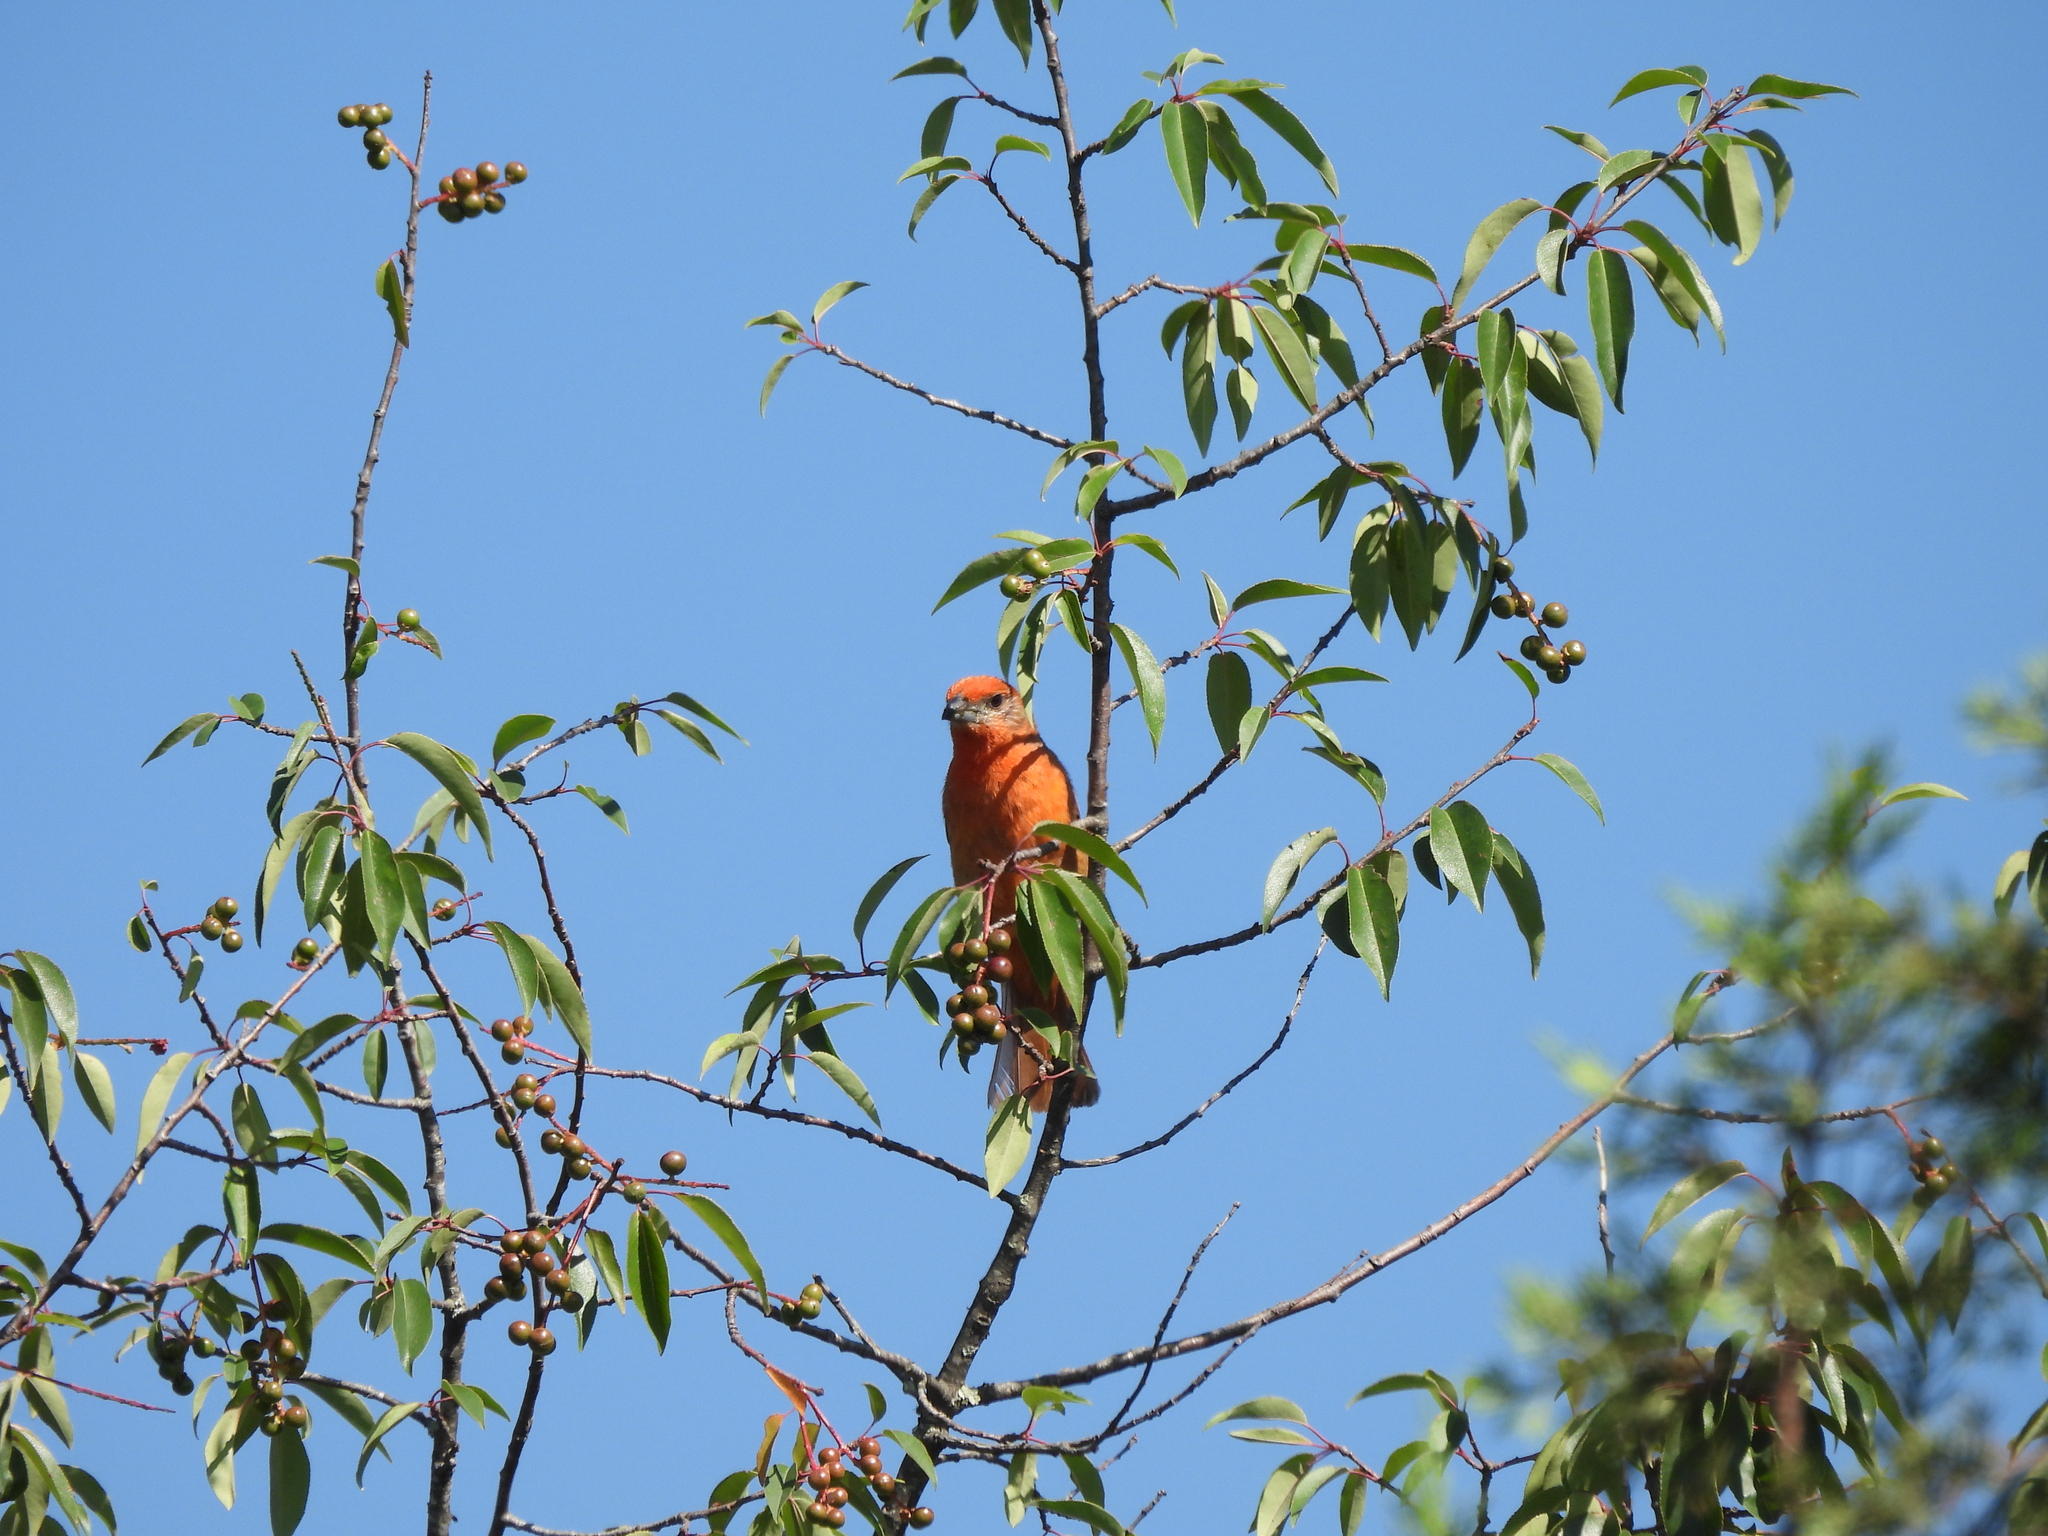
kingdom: Animalia
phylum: Chordata
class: Aves
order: Passeriformes
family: Cardinalidae
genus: Piranga
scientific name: Piranga flava
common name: Red tanager
